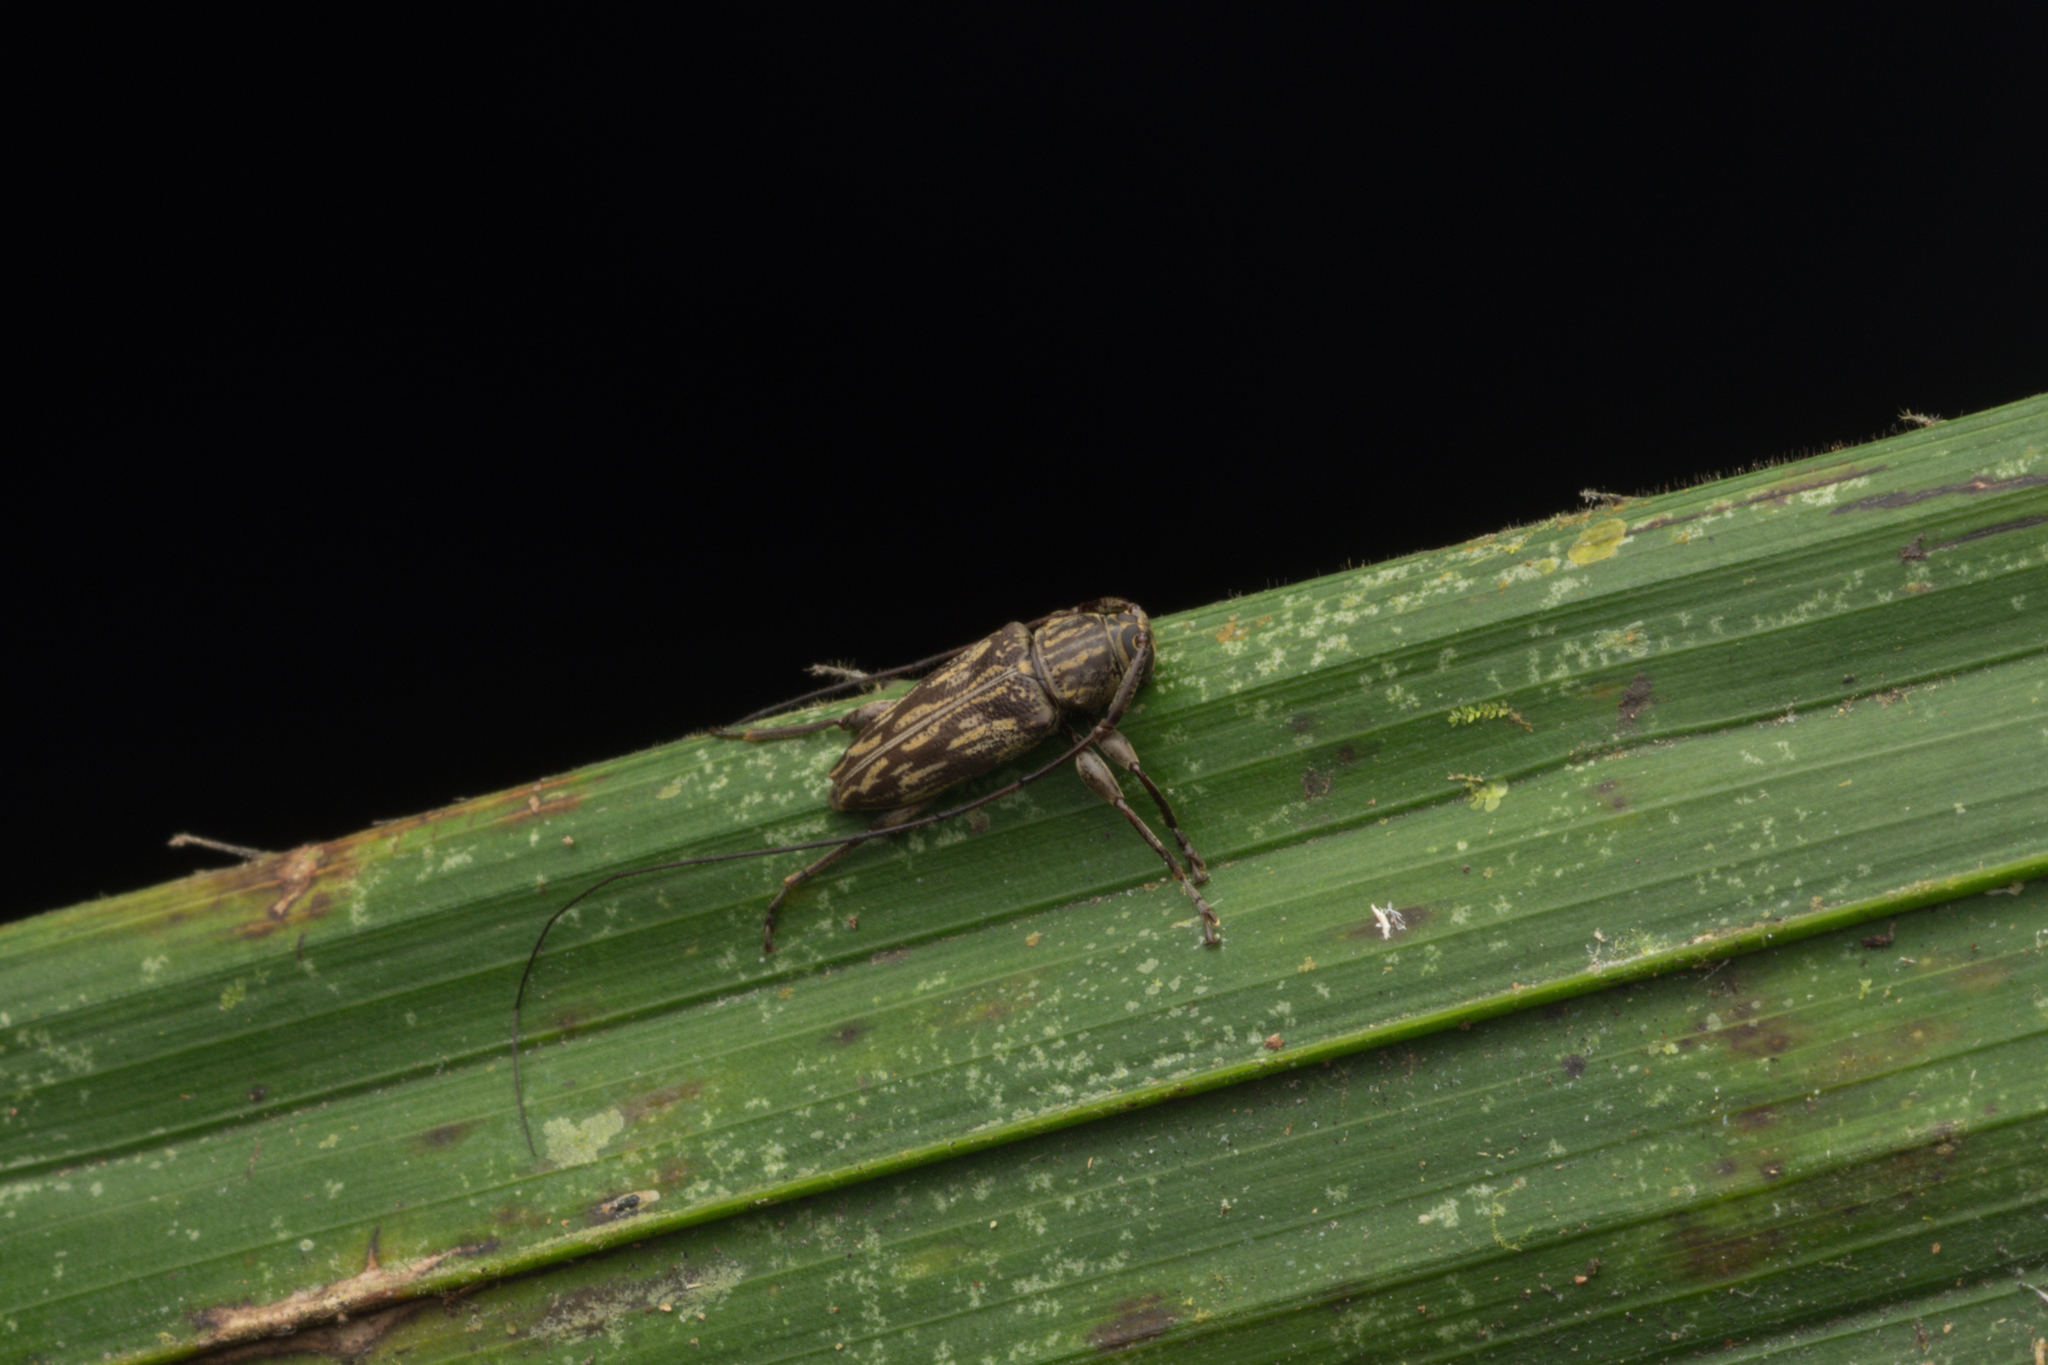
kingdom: Animalia
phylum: Arthropoda
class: Insecta
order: Coleoptera
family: Cerambycidae
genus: Nyssodrysternum
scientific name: Nyssodrysternum rodens
